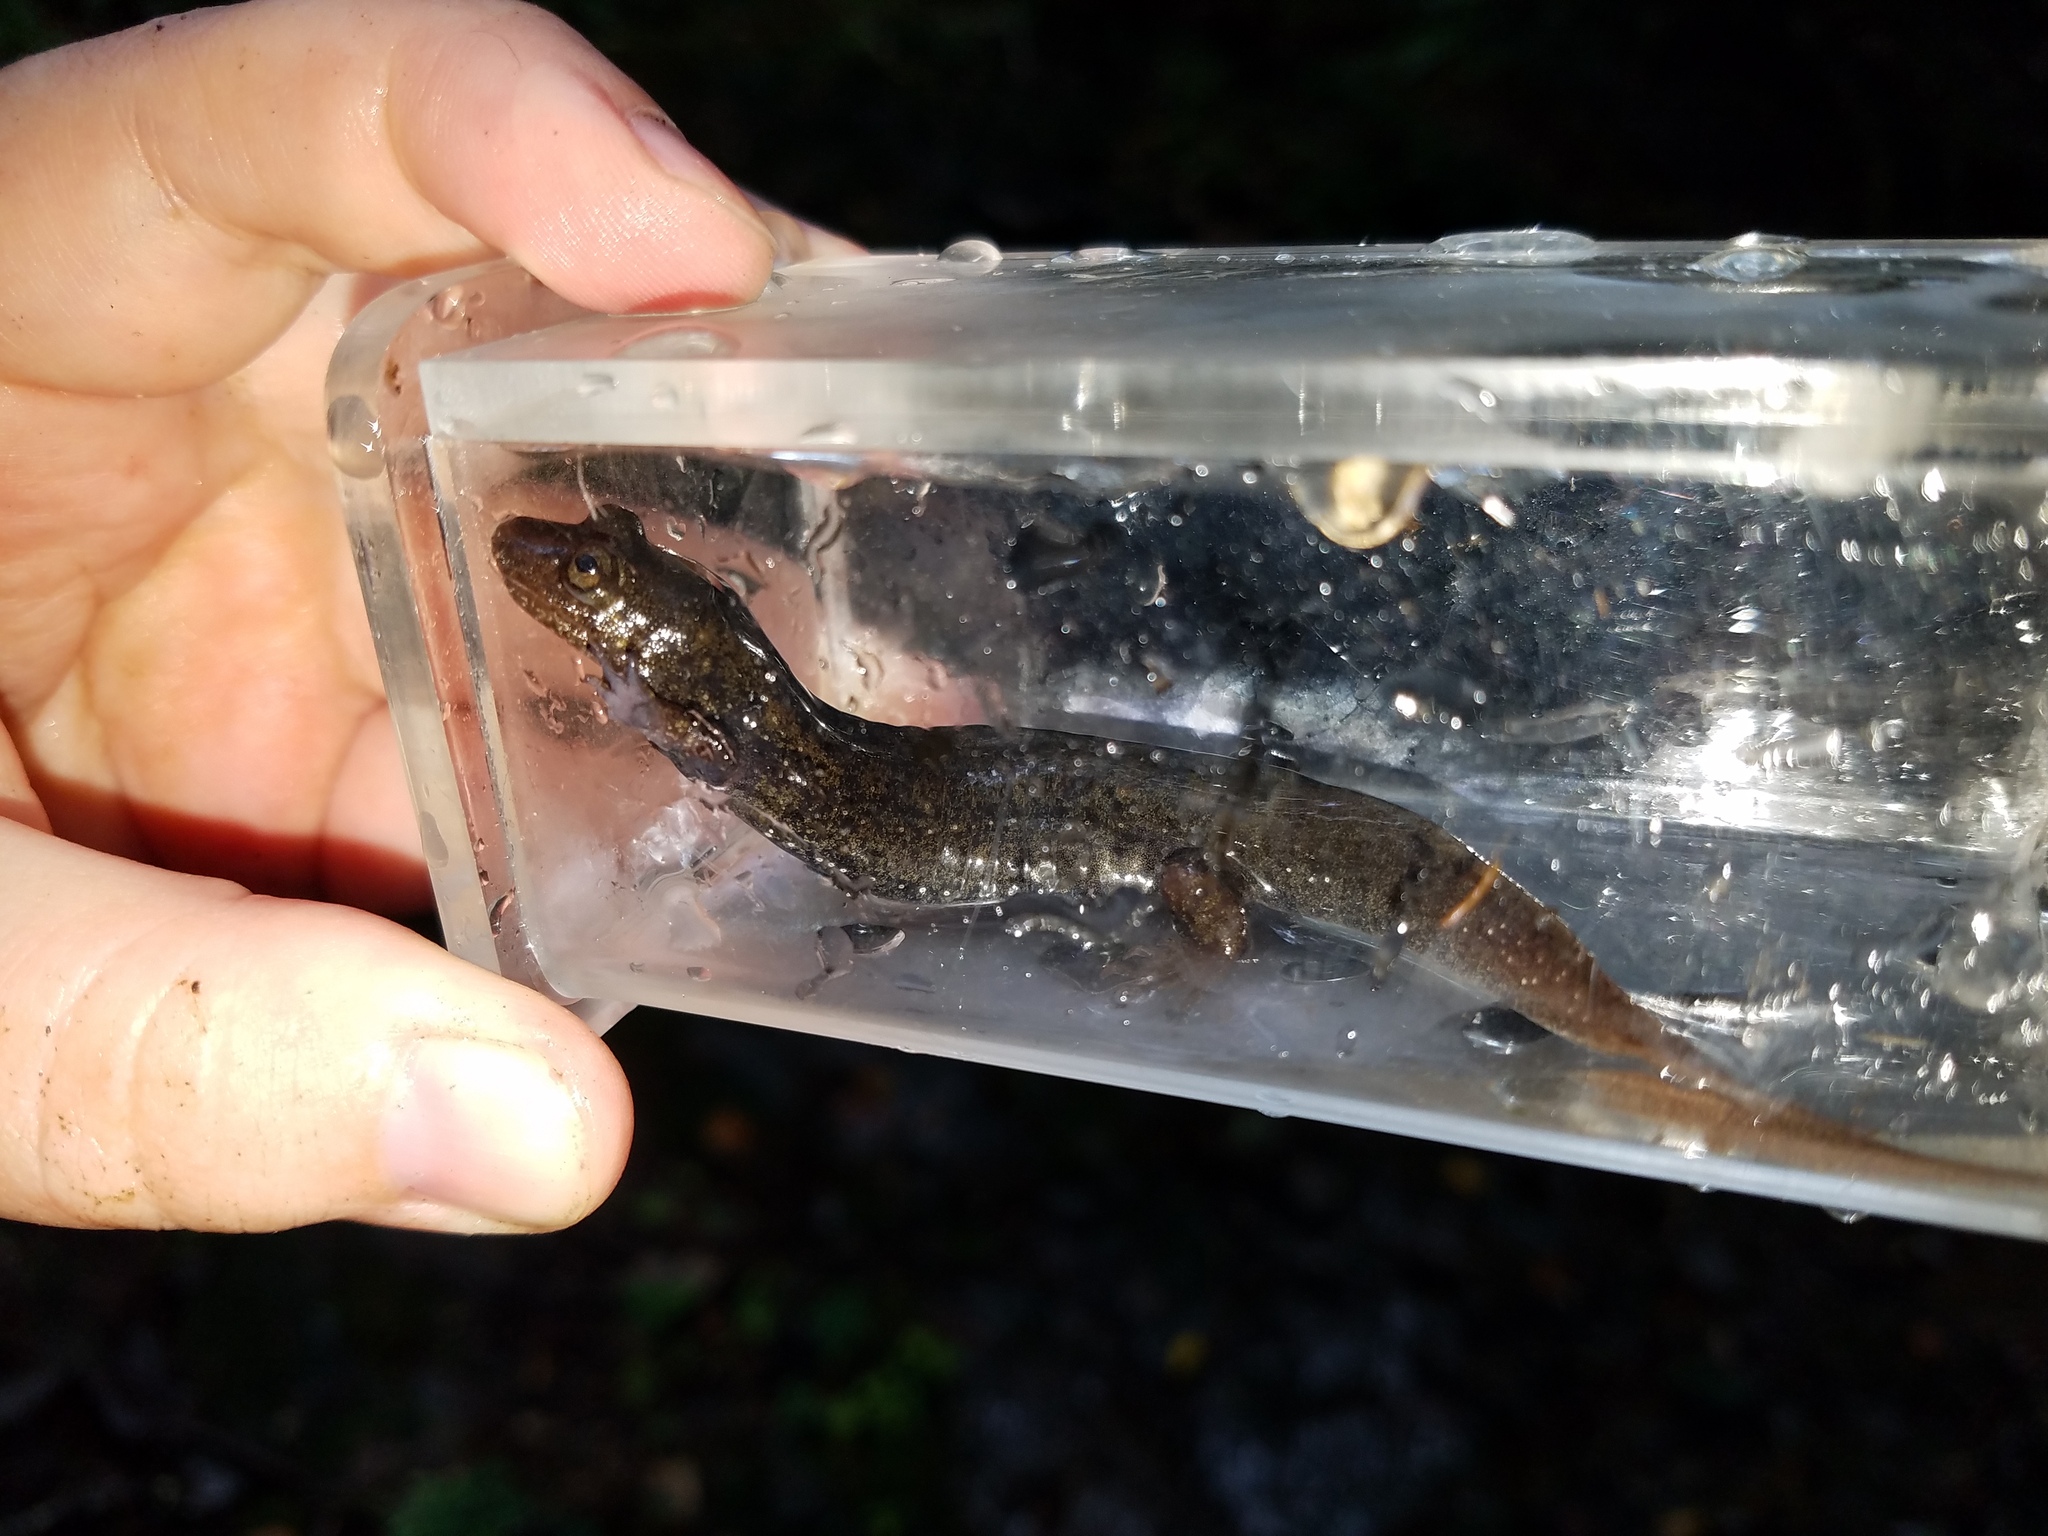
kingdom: Animalia
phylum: Chordata
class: Amphibia
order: Caudata
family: Plethodontidae
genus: Desmognathus
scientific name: Desmognathus
